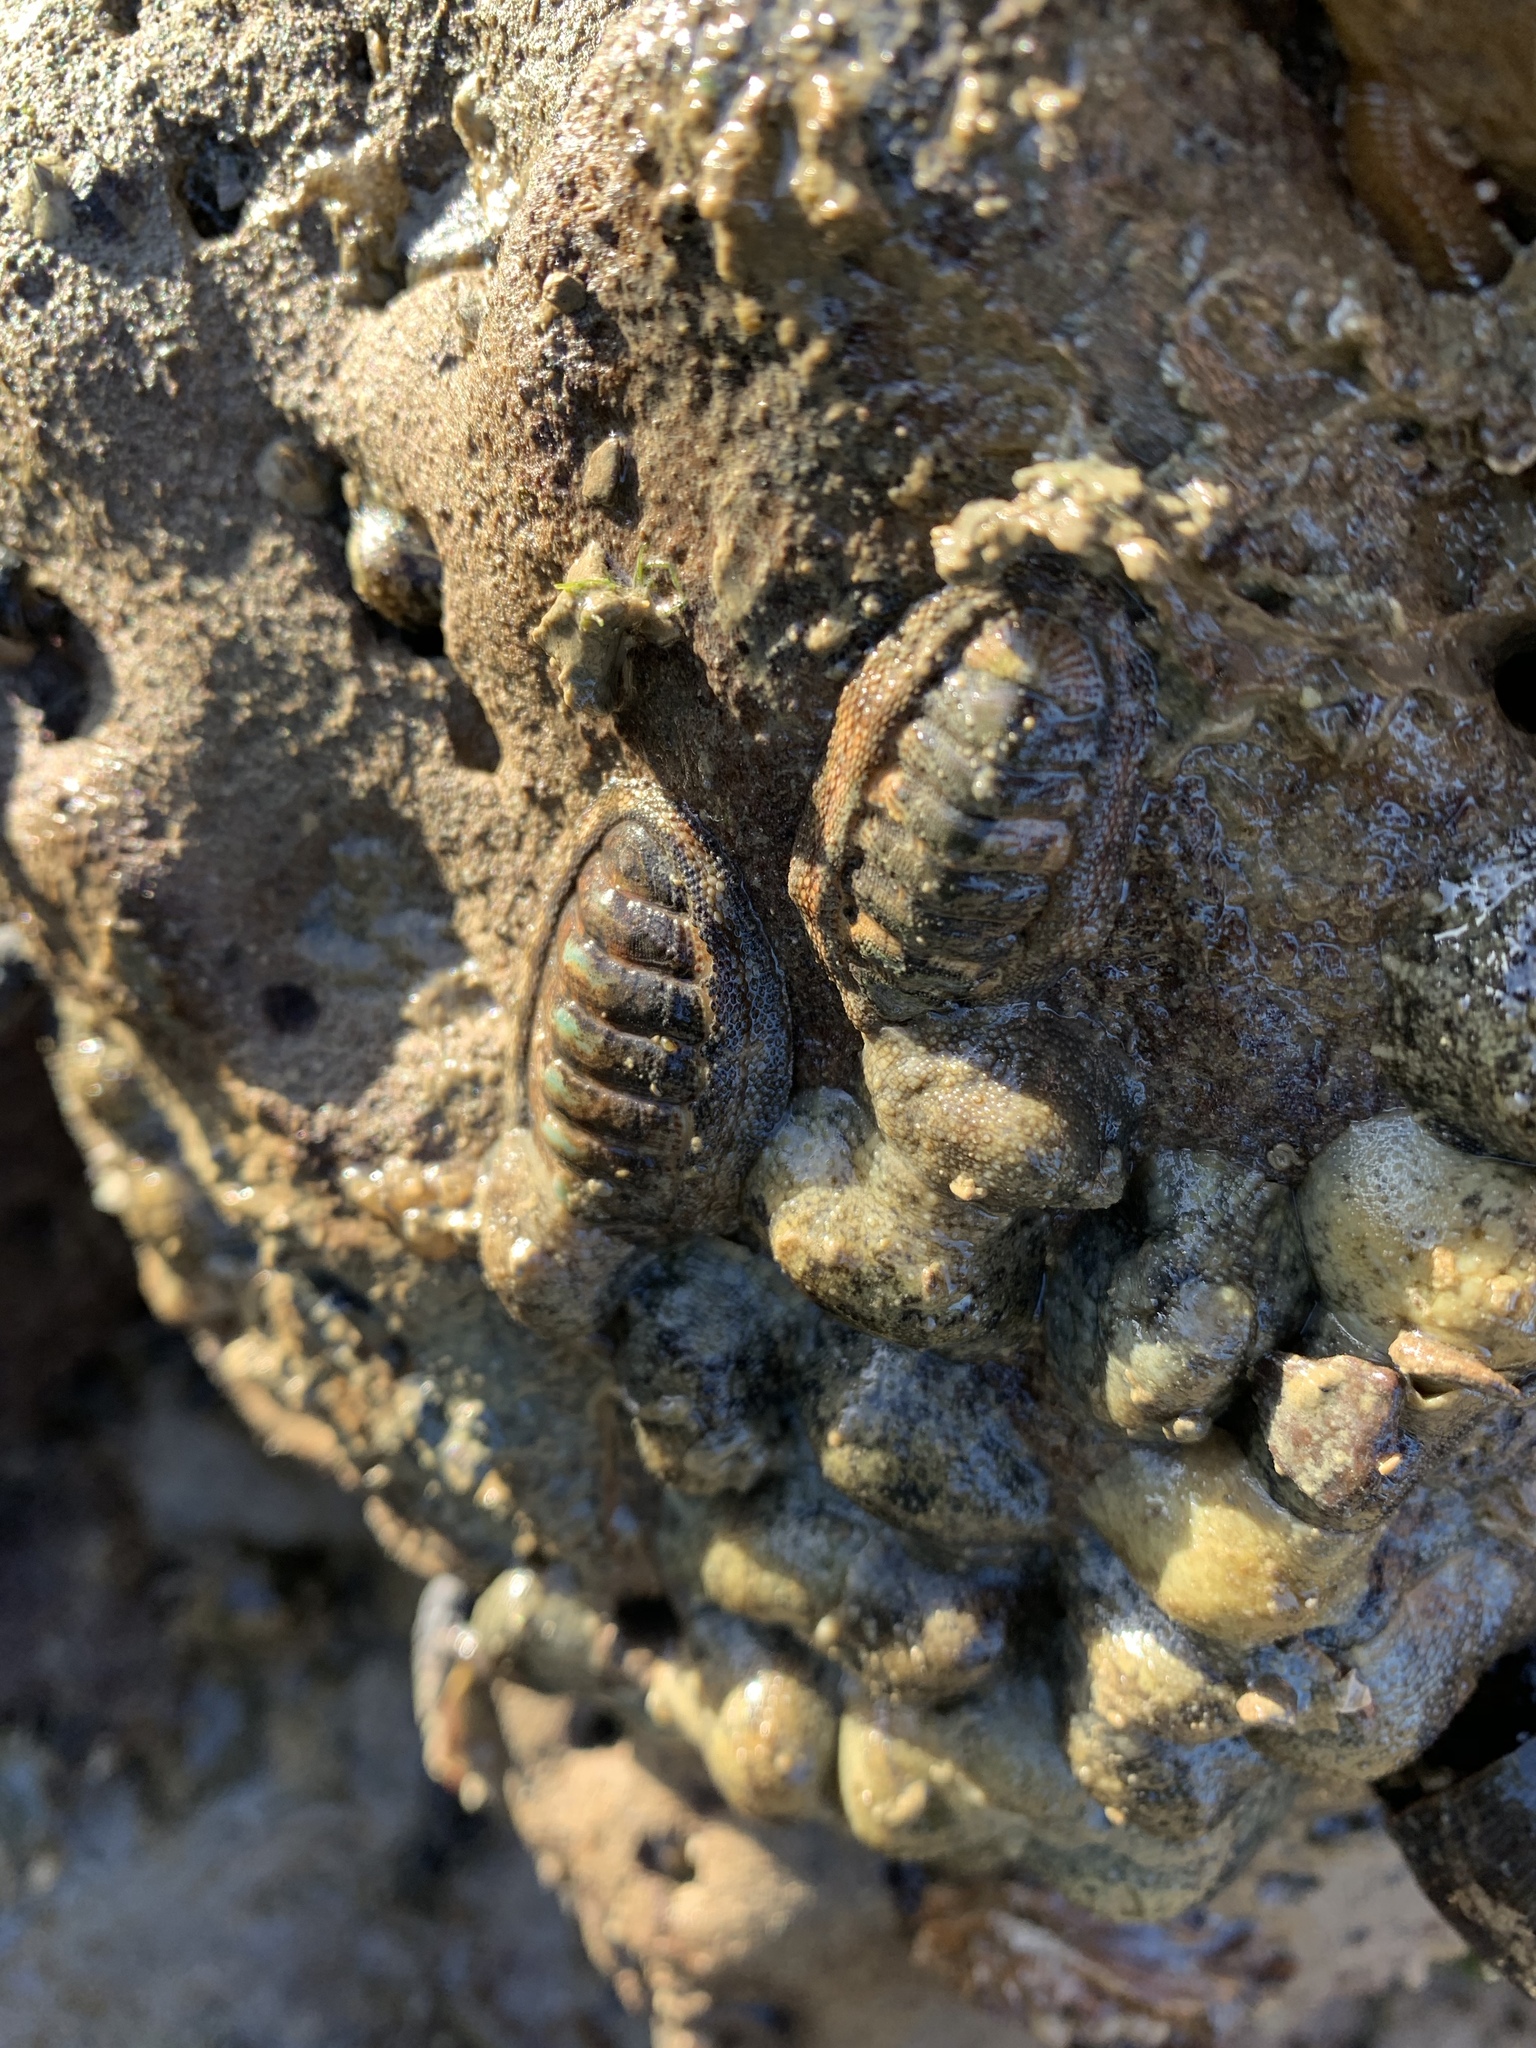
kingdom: Animalia
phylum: Mollusca
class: Polyplacophora
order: Chitonida
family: Chitonidae
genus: Sypharochiton
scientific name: Sypharochiton pelliserpentis
